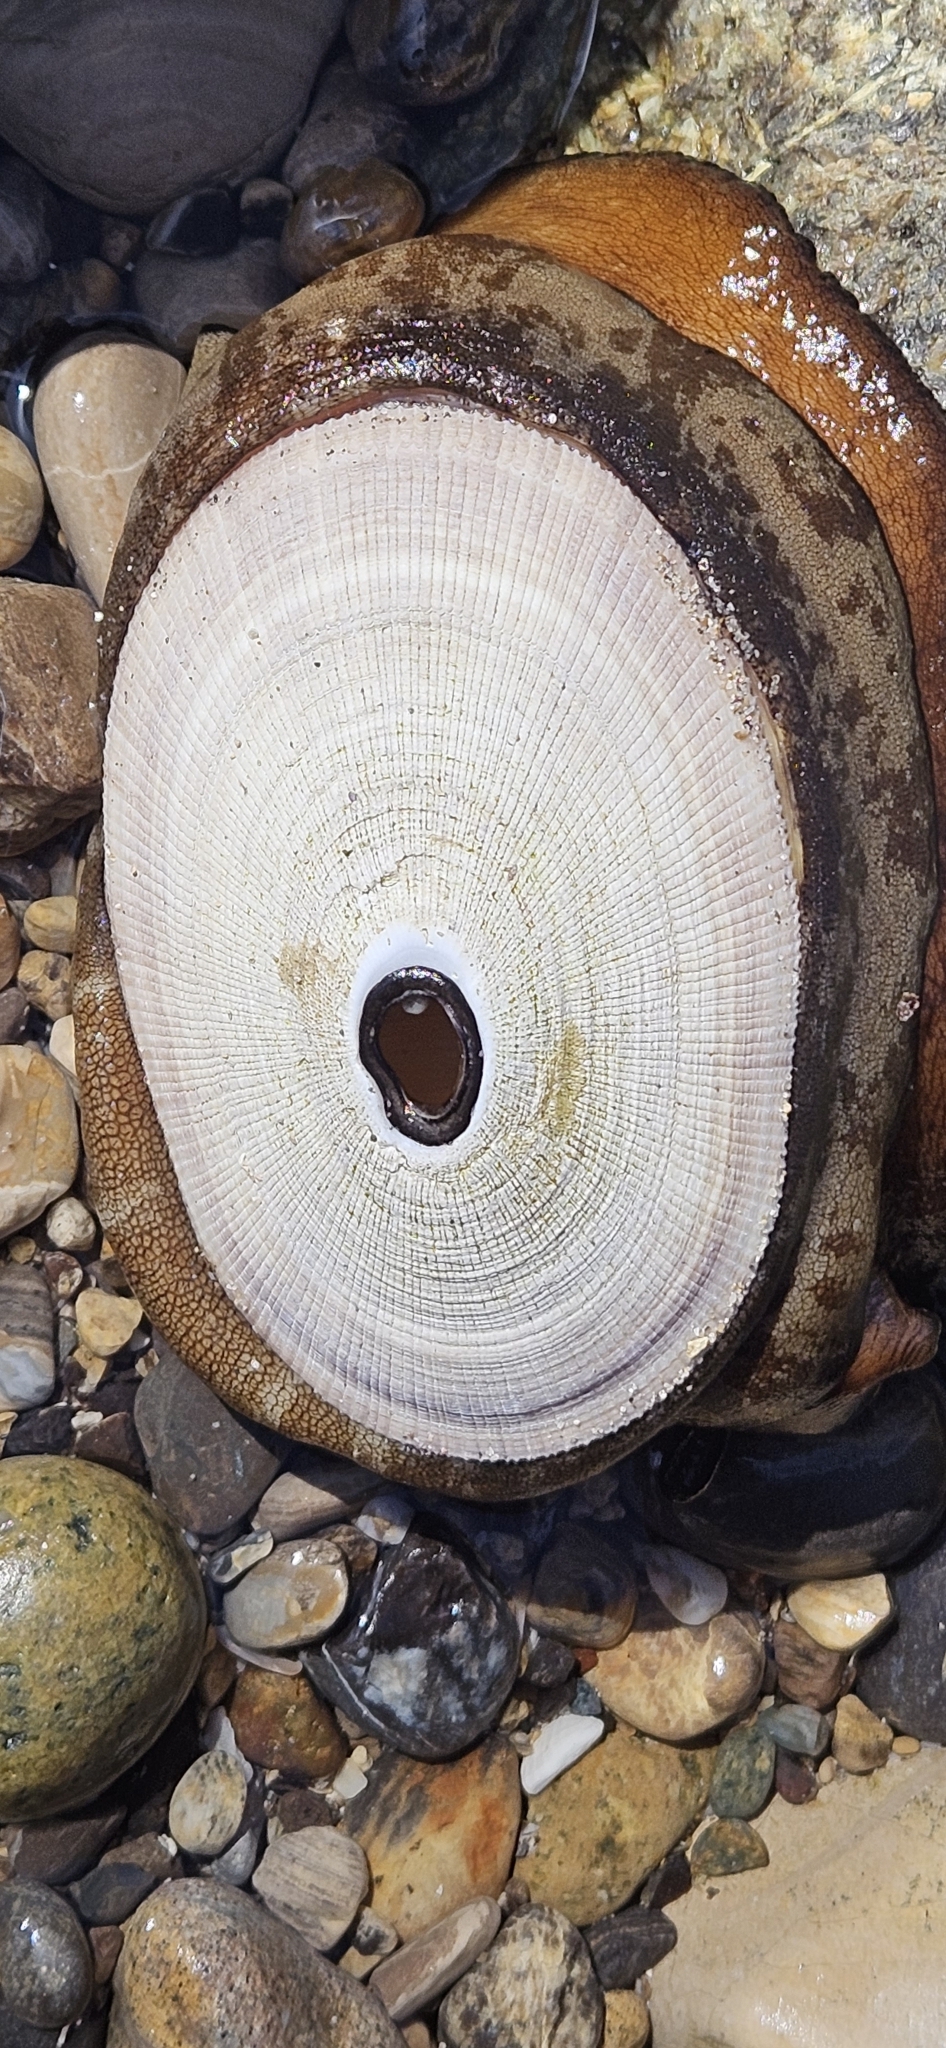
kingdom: Animalia
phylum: Mollusca
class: Gastropoda
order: Lepetellida
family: Fissurellidae
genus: Megathura
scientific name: Megathura crenulata
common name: Giant keyhole limpet
